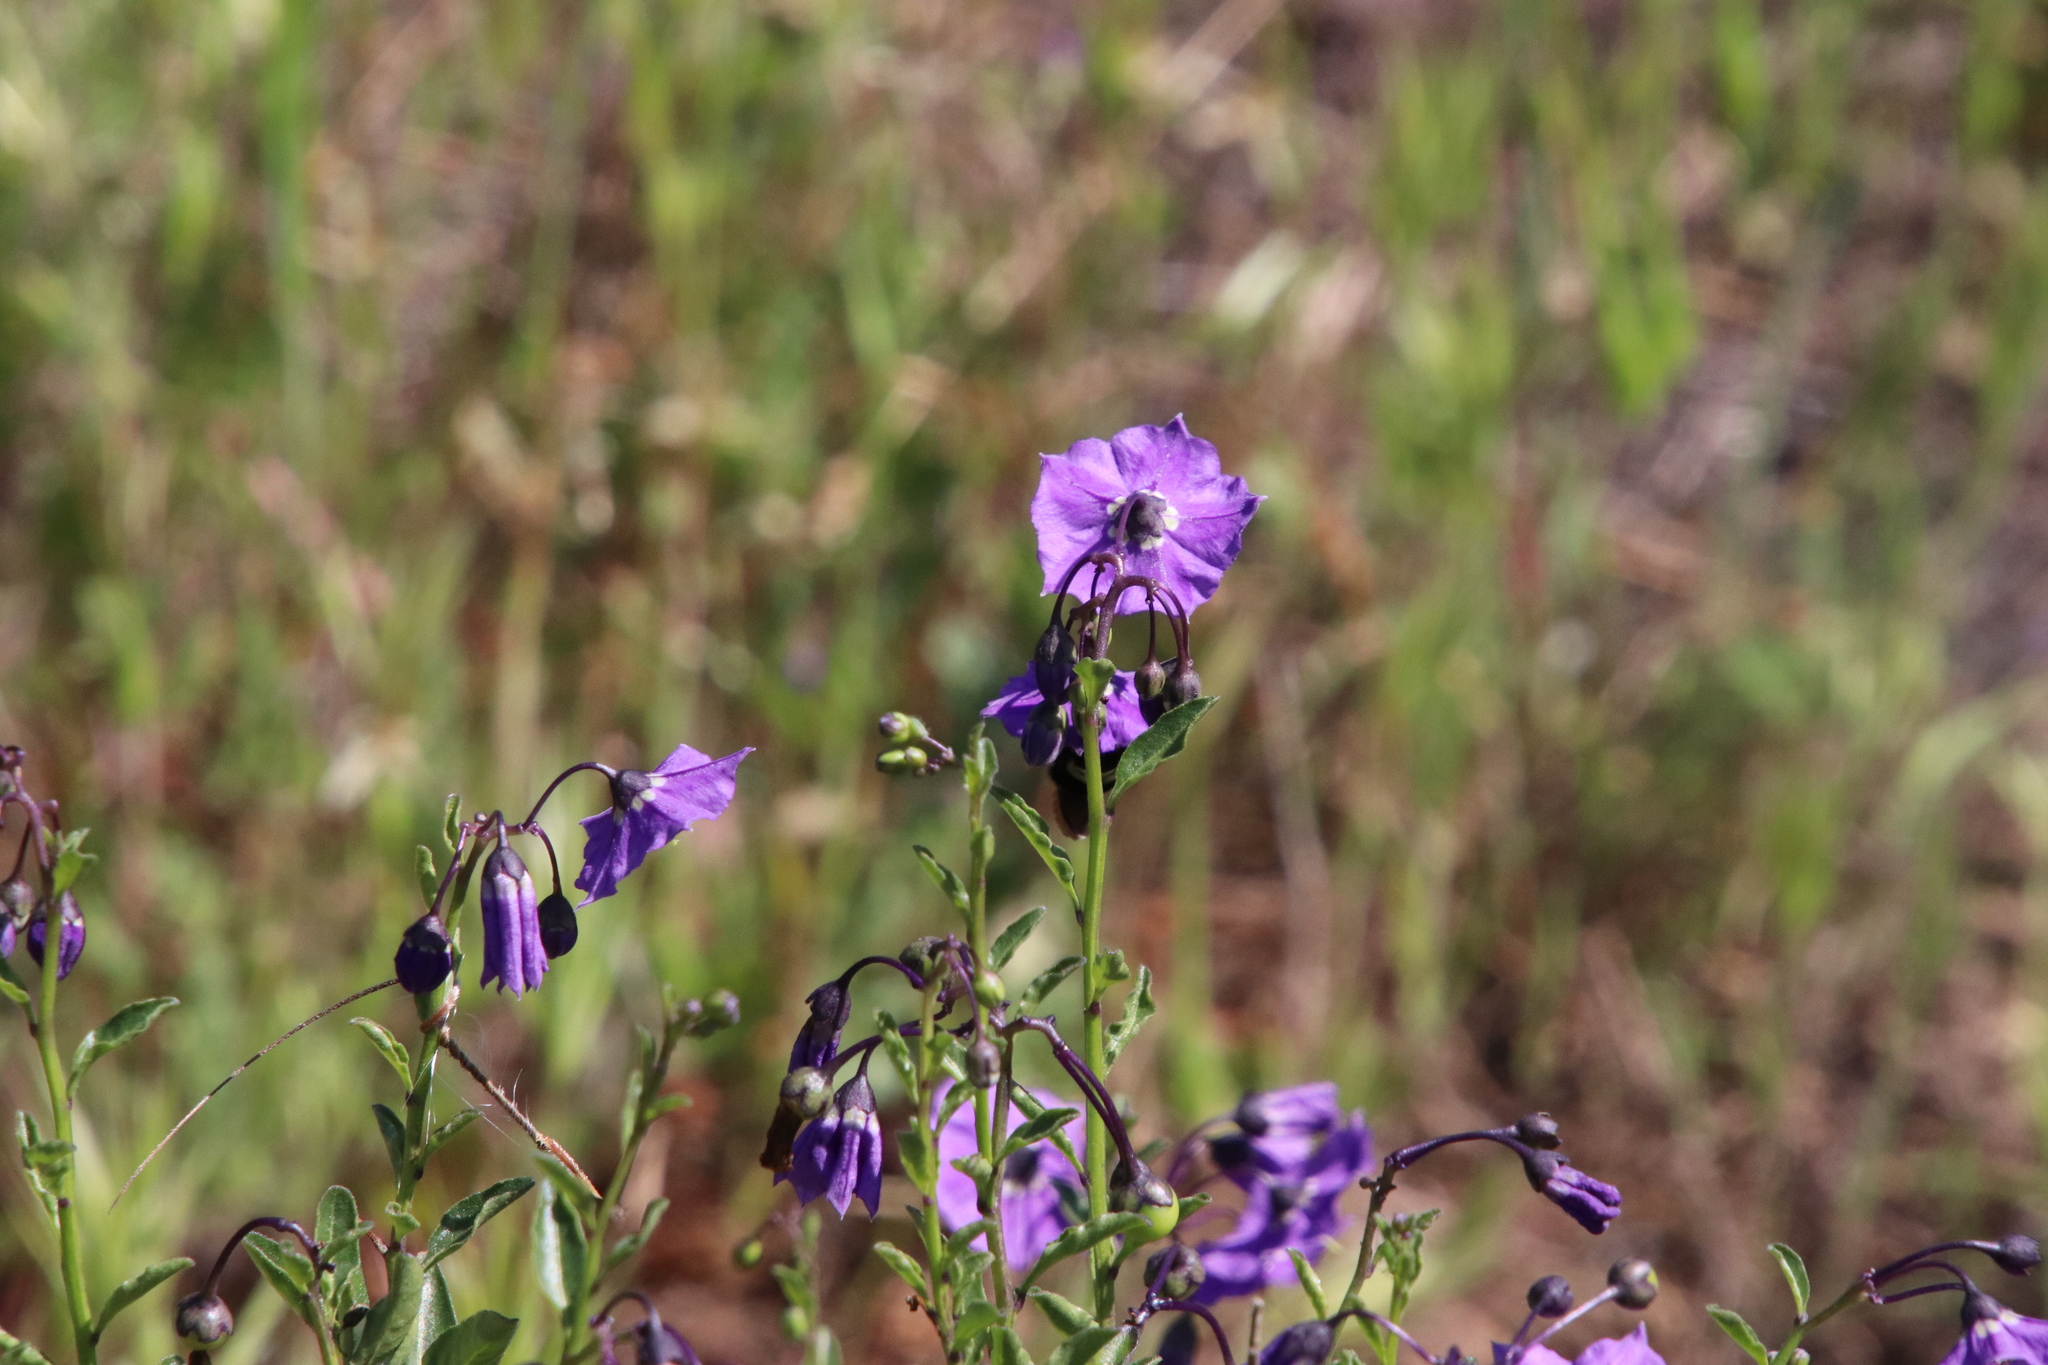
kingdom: Plantae
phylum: Tracheophyta
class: Magnoliopsida
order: Solanales
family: Solanaceae
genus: Solanum
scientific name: Solanum umbelliferum
